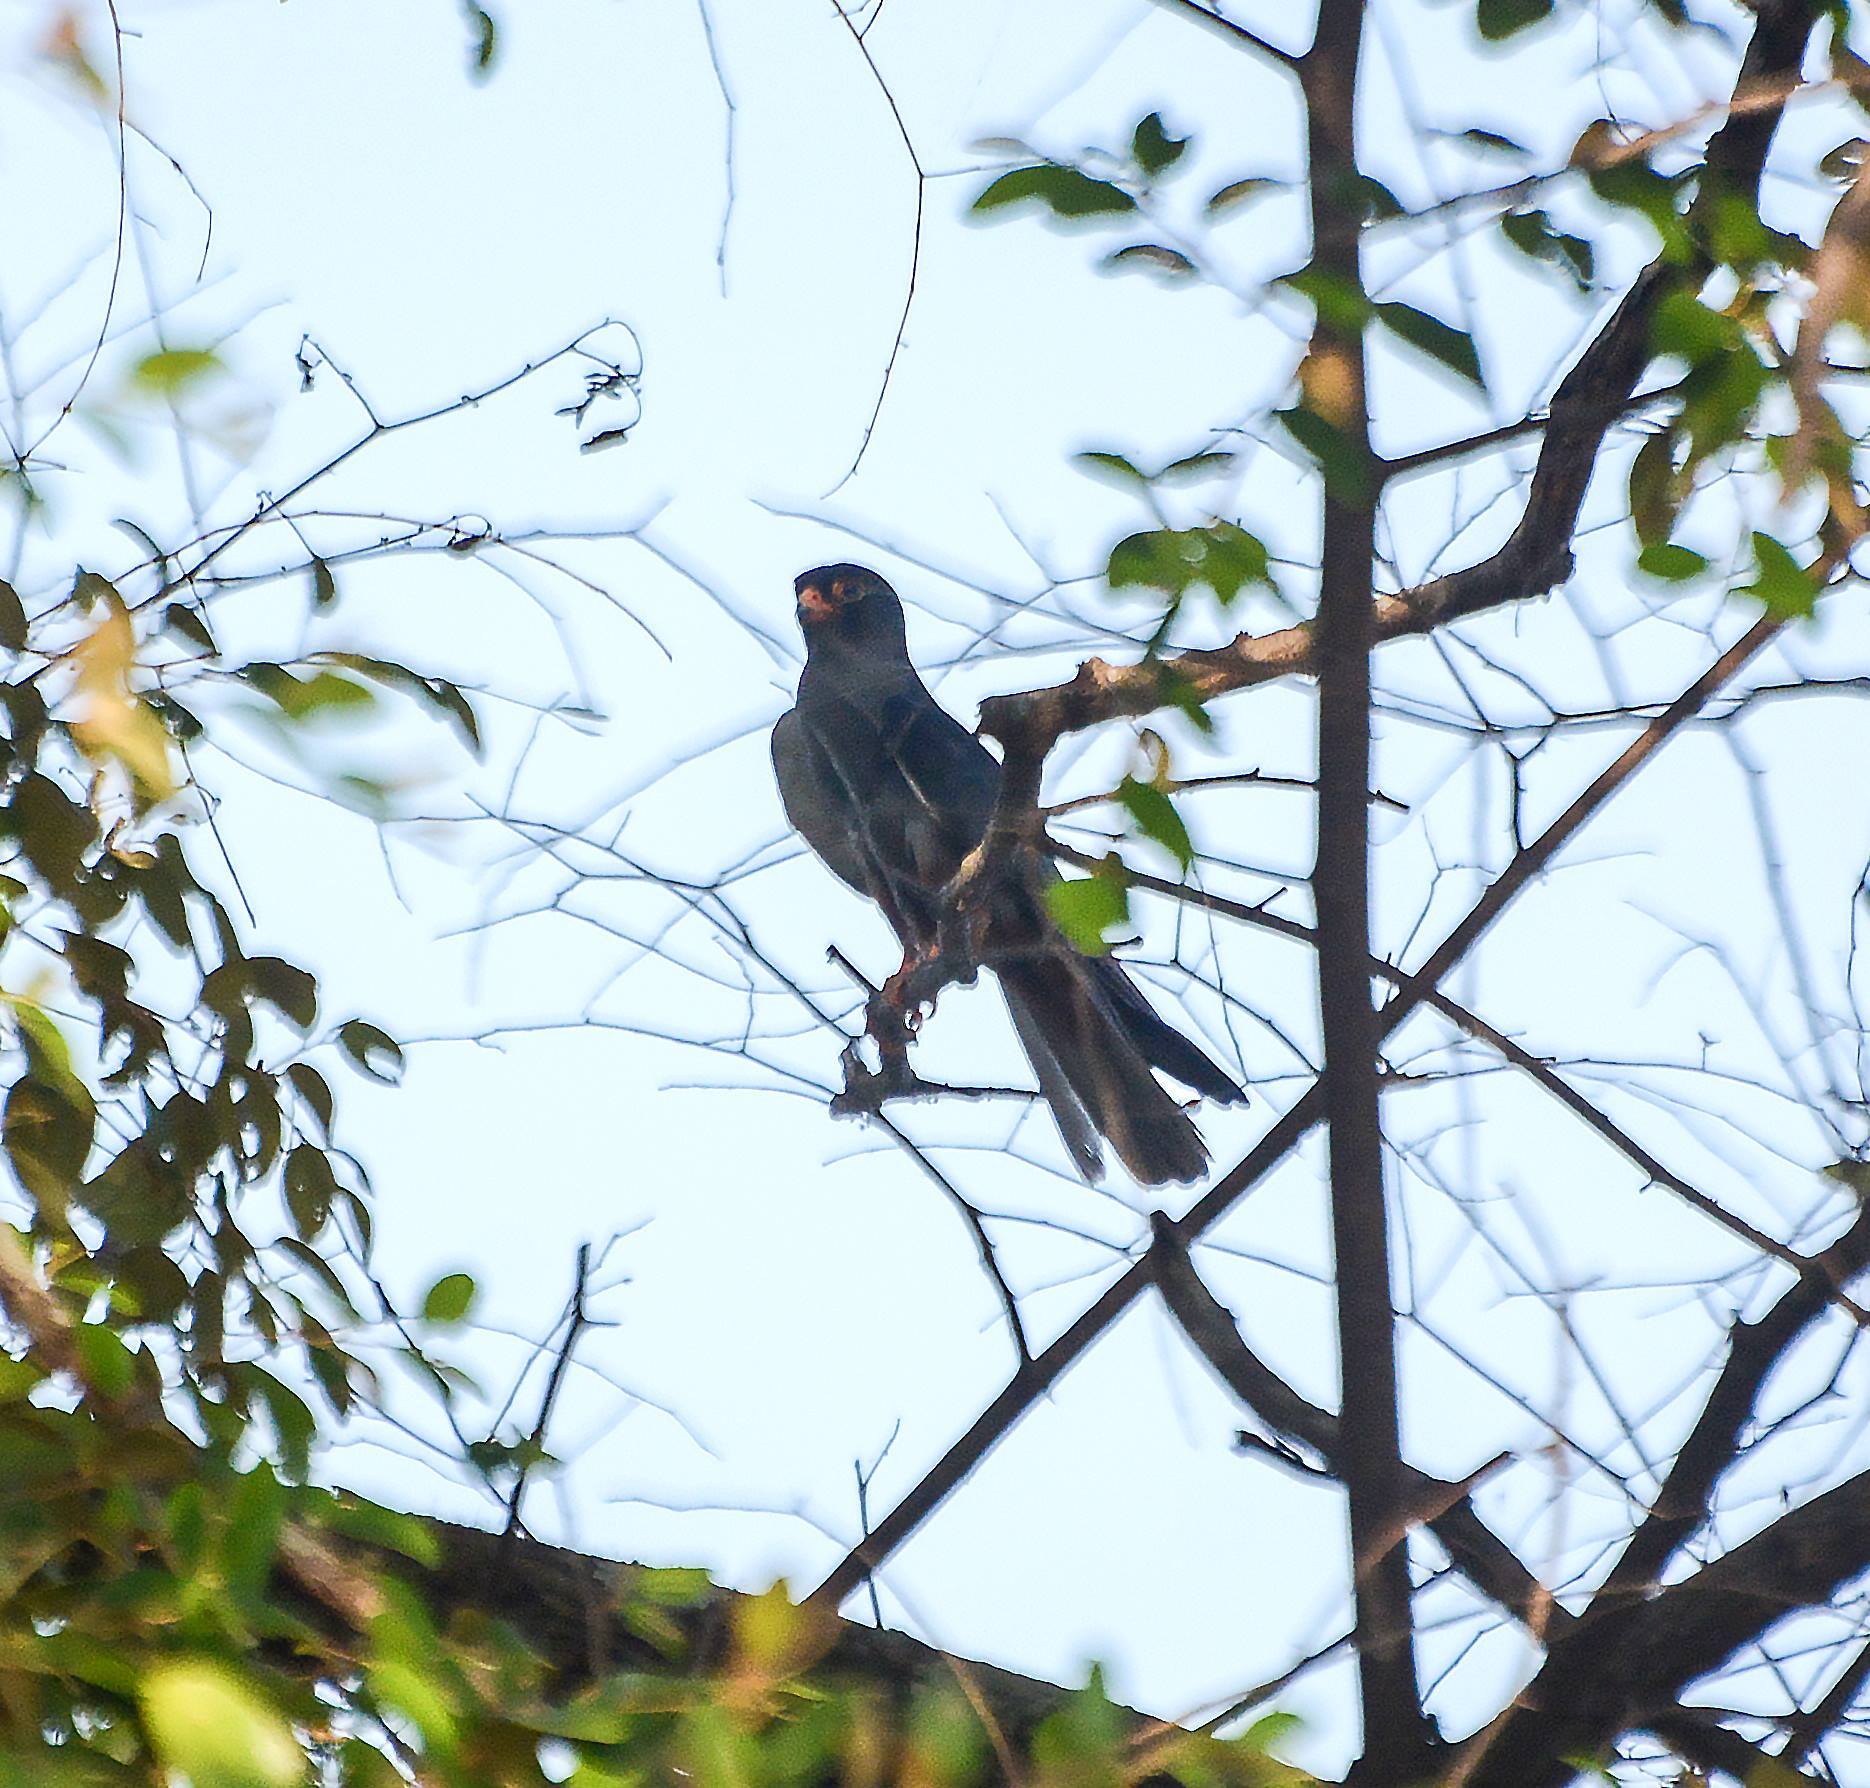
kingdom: Animalia
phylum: Chordata
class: Aves
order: Falconiformes
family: Falconidae
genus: Falco
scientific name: Falco amurensis
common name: Amur falcon
